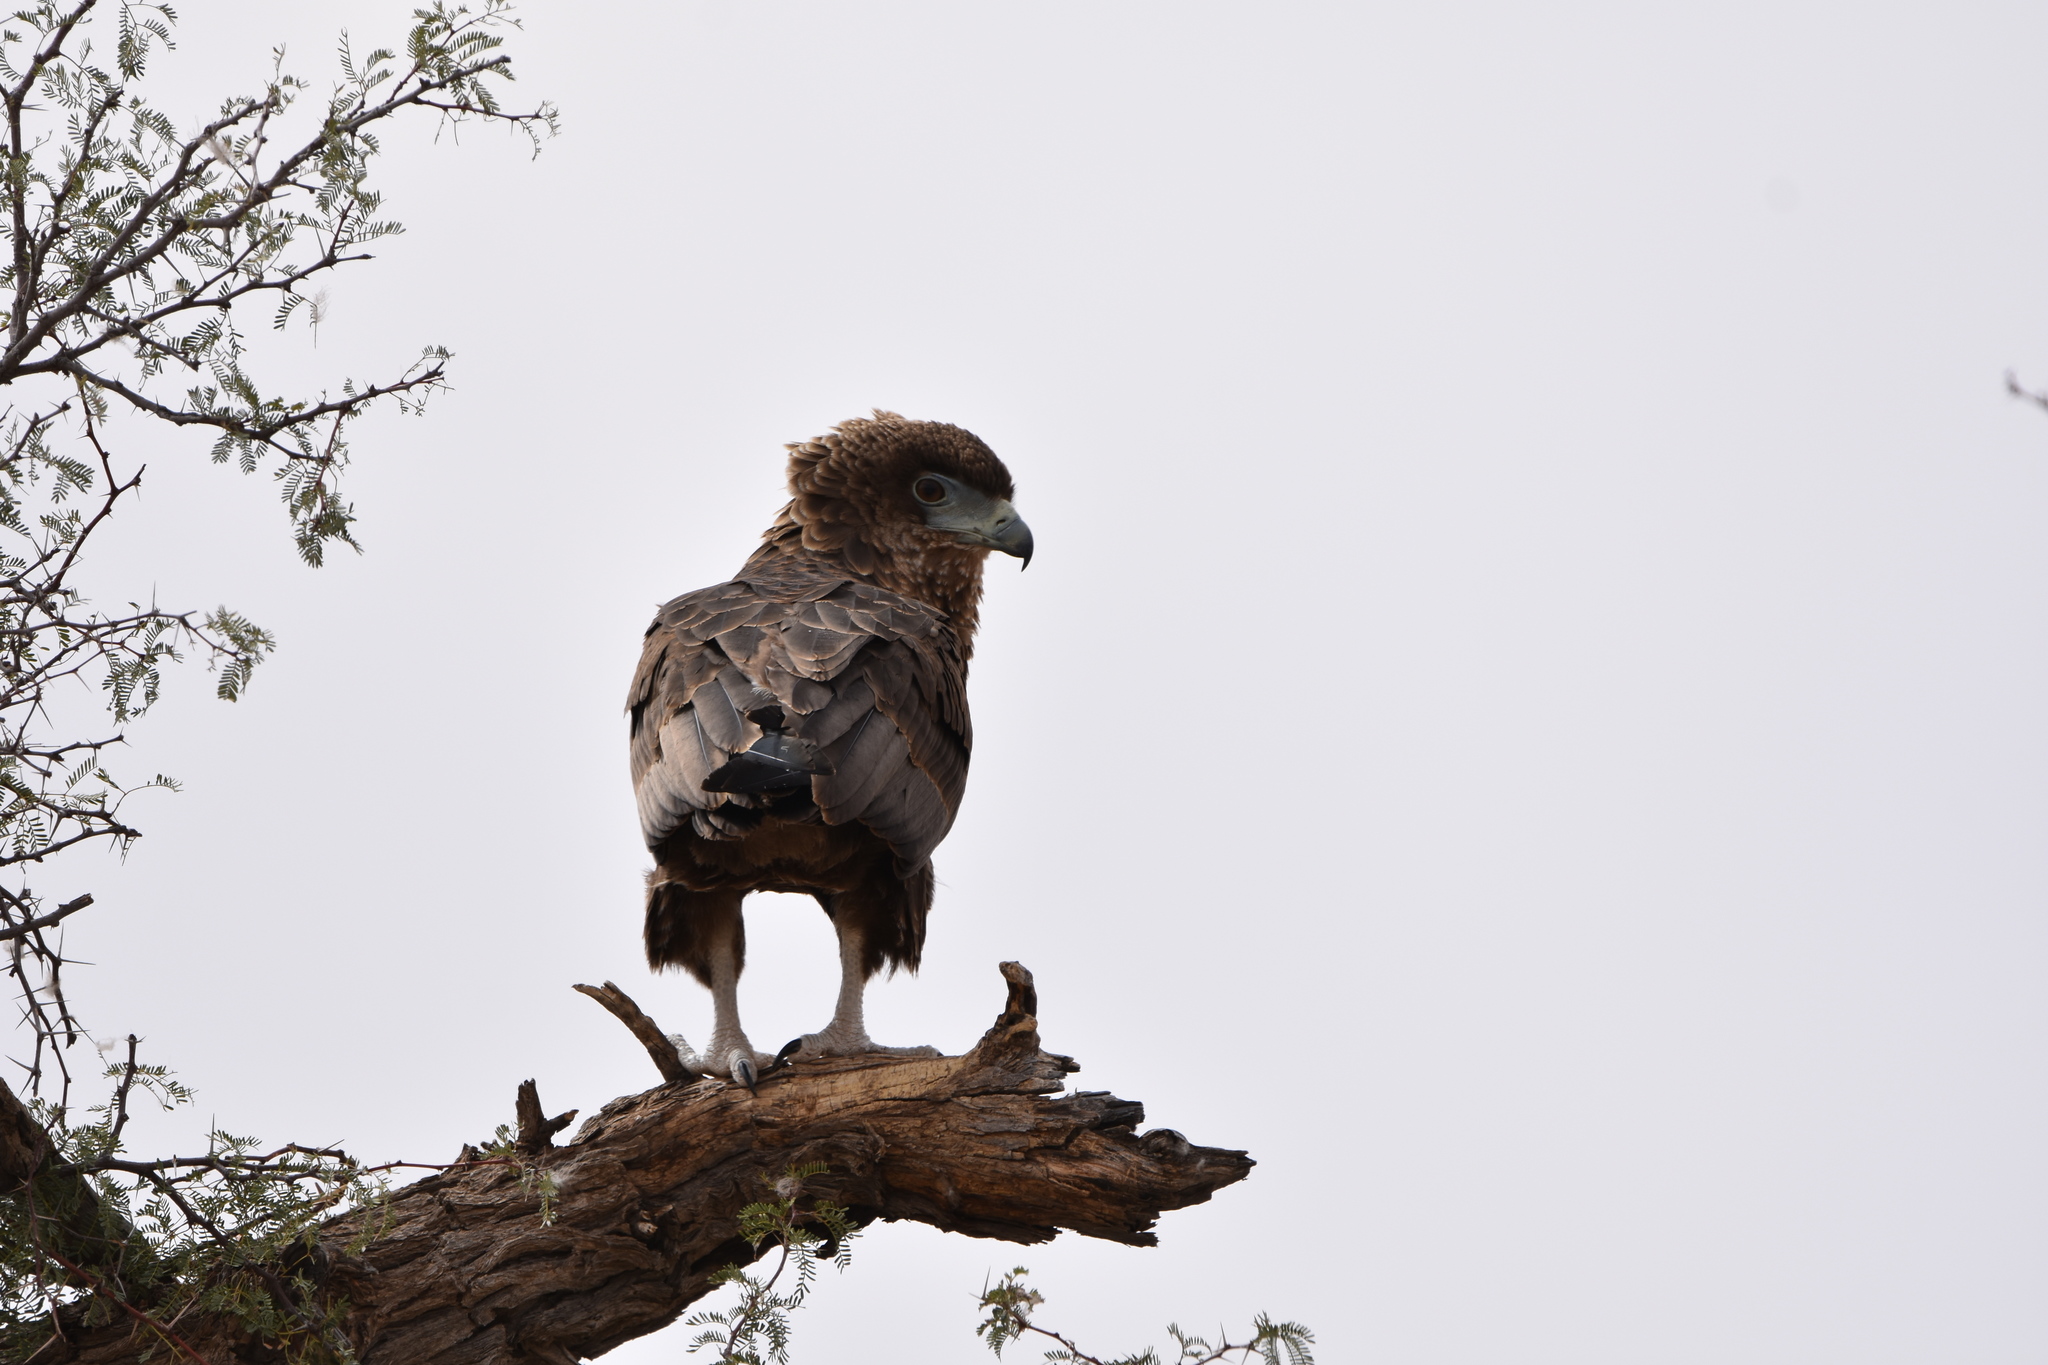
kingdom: Animalia
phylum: Chordata
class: Aves
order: Accipitriformes
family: Accipitridae
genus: Terathopius
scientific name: Terathopius ecaudatus
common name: Bateleur
